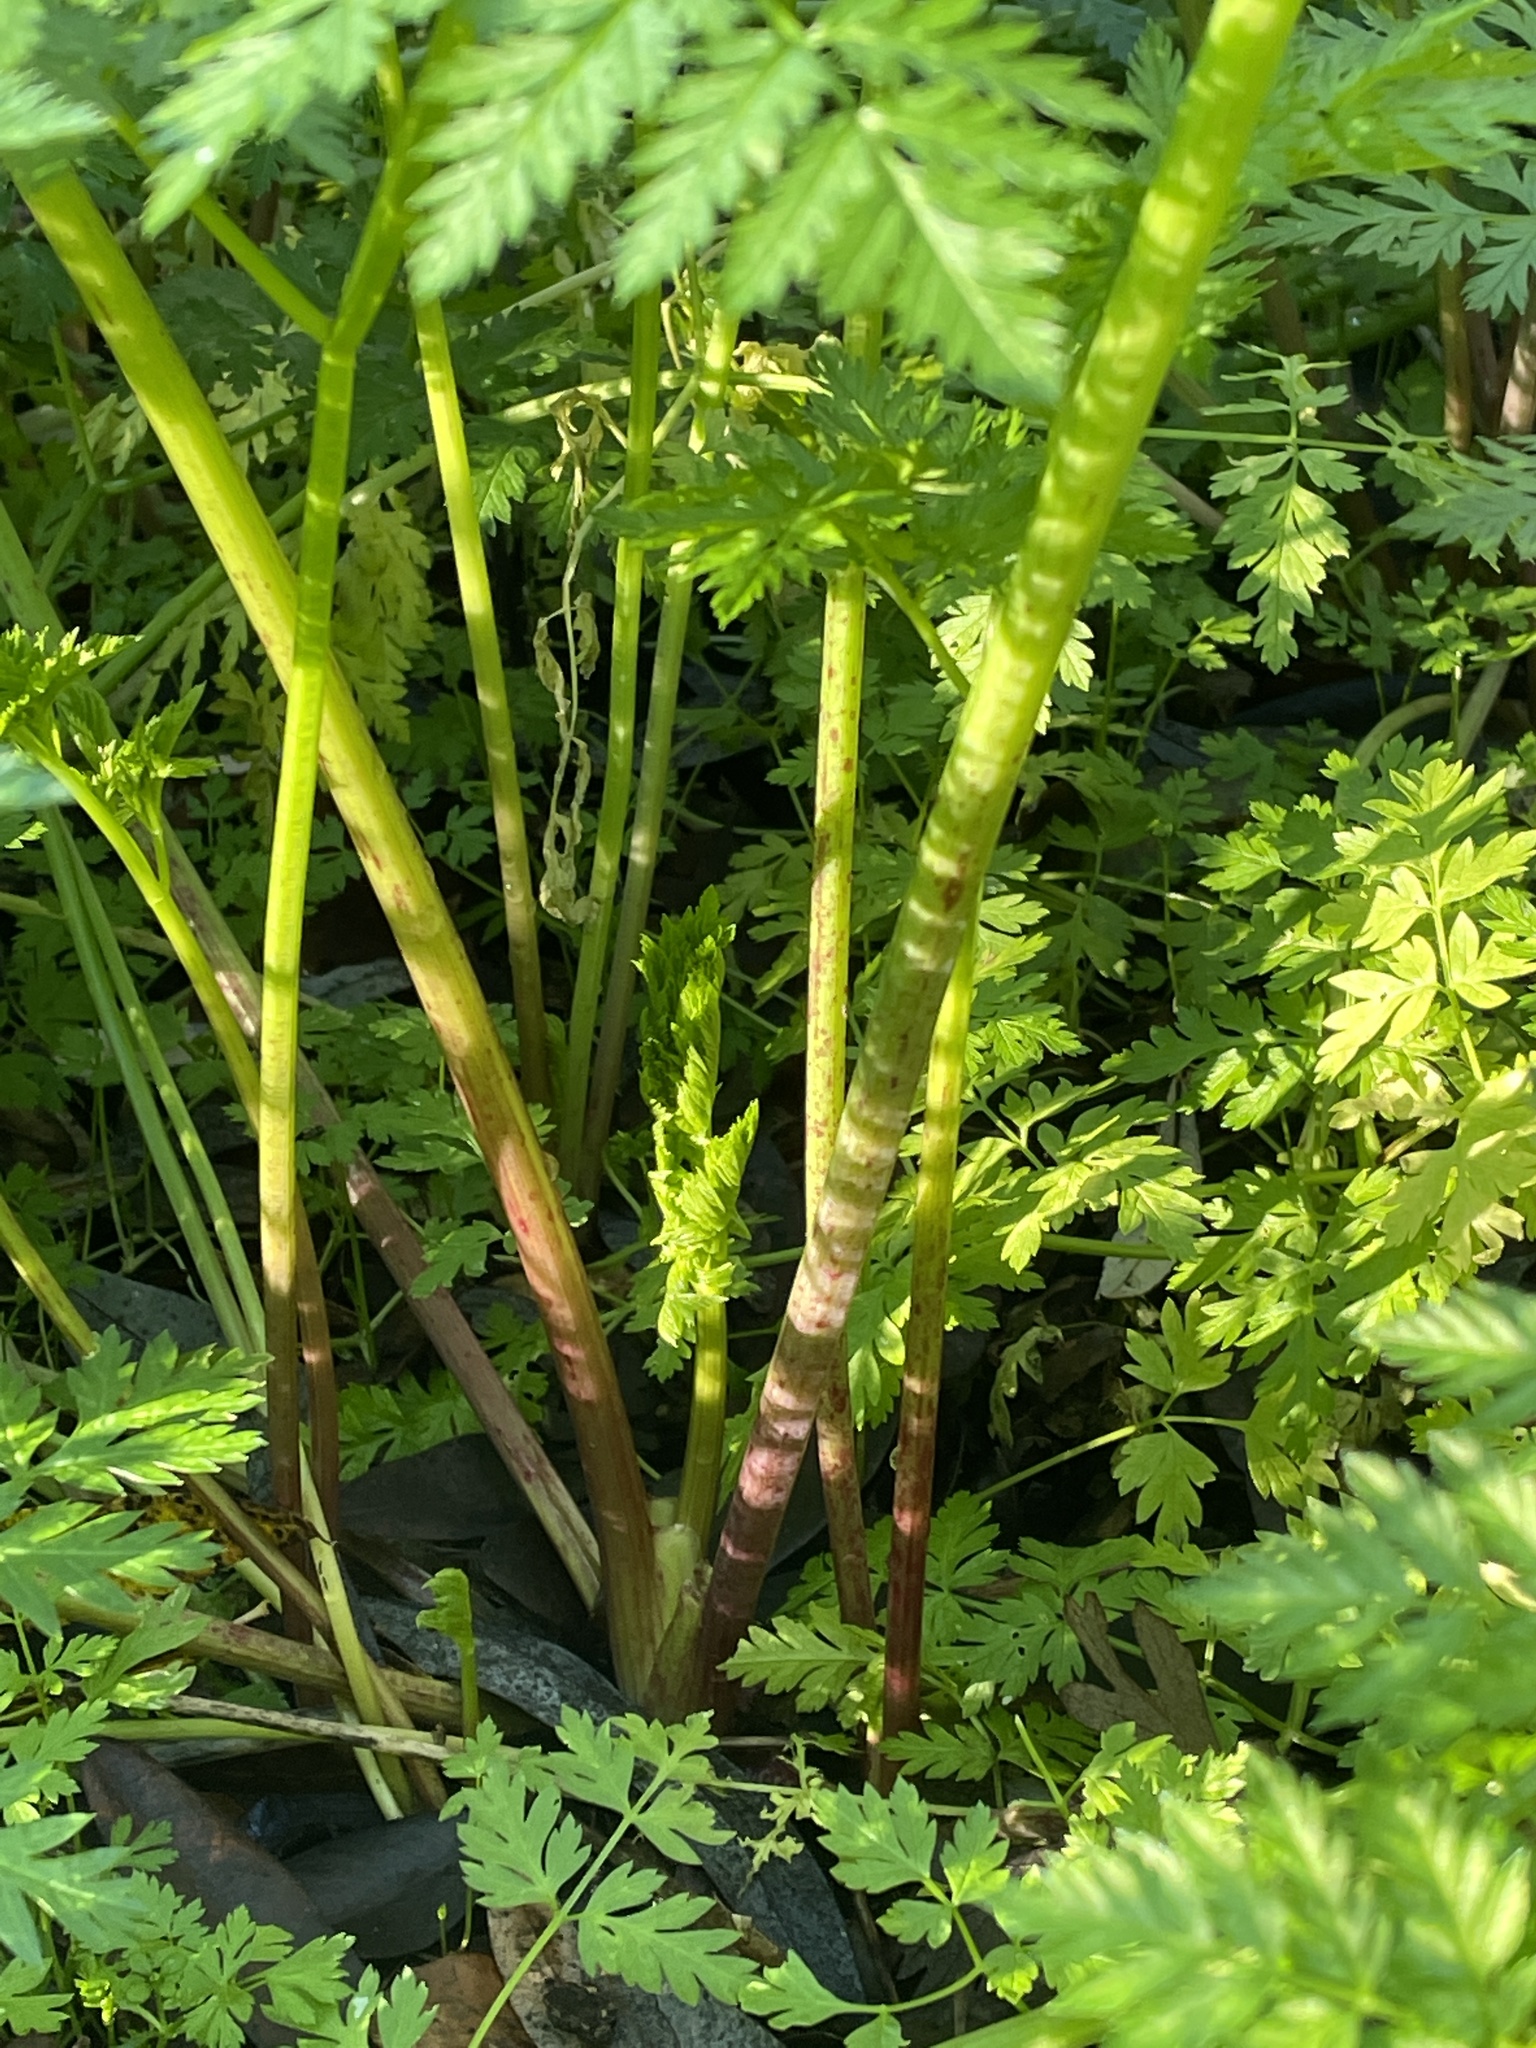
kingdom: Plantae
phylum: Tracheophyta
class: Magnoliopsida
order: Apiales
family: Apiaceae
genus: Conium
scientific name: Conium maculatum
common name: Hemlock
